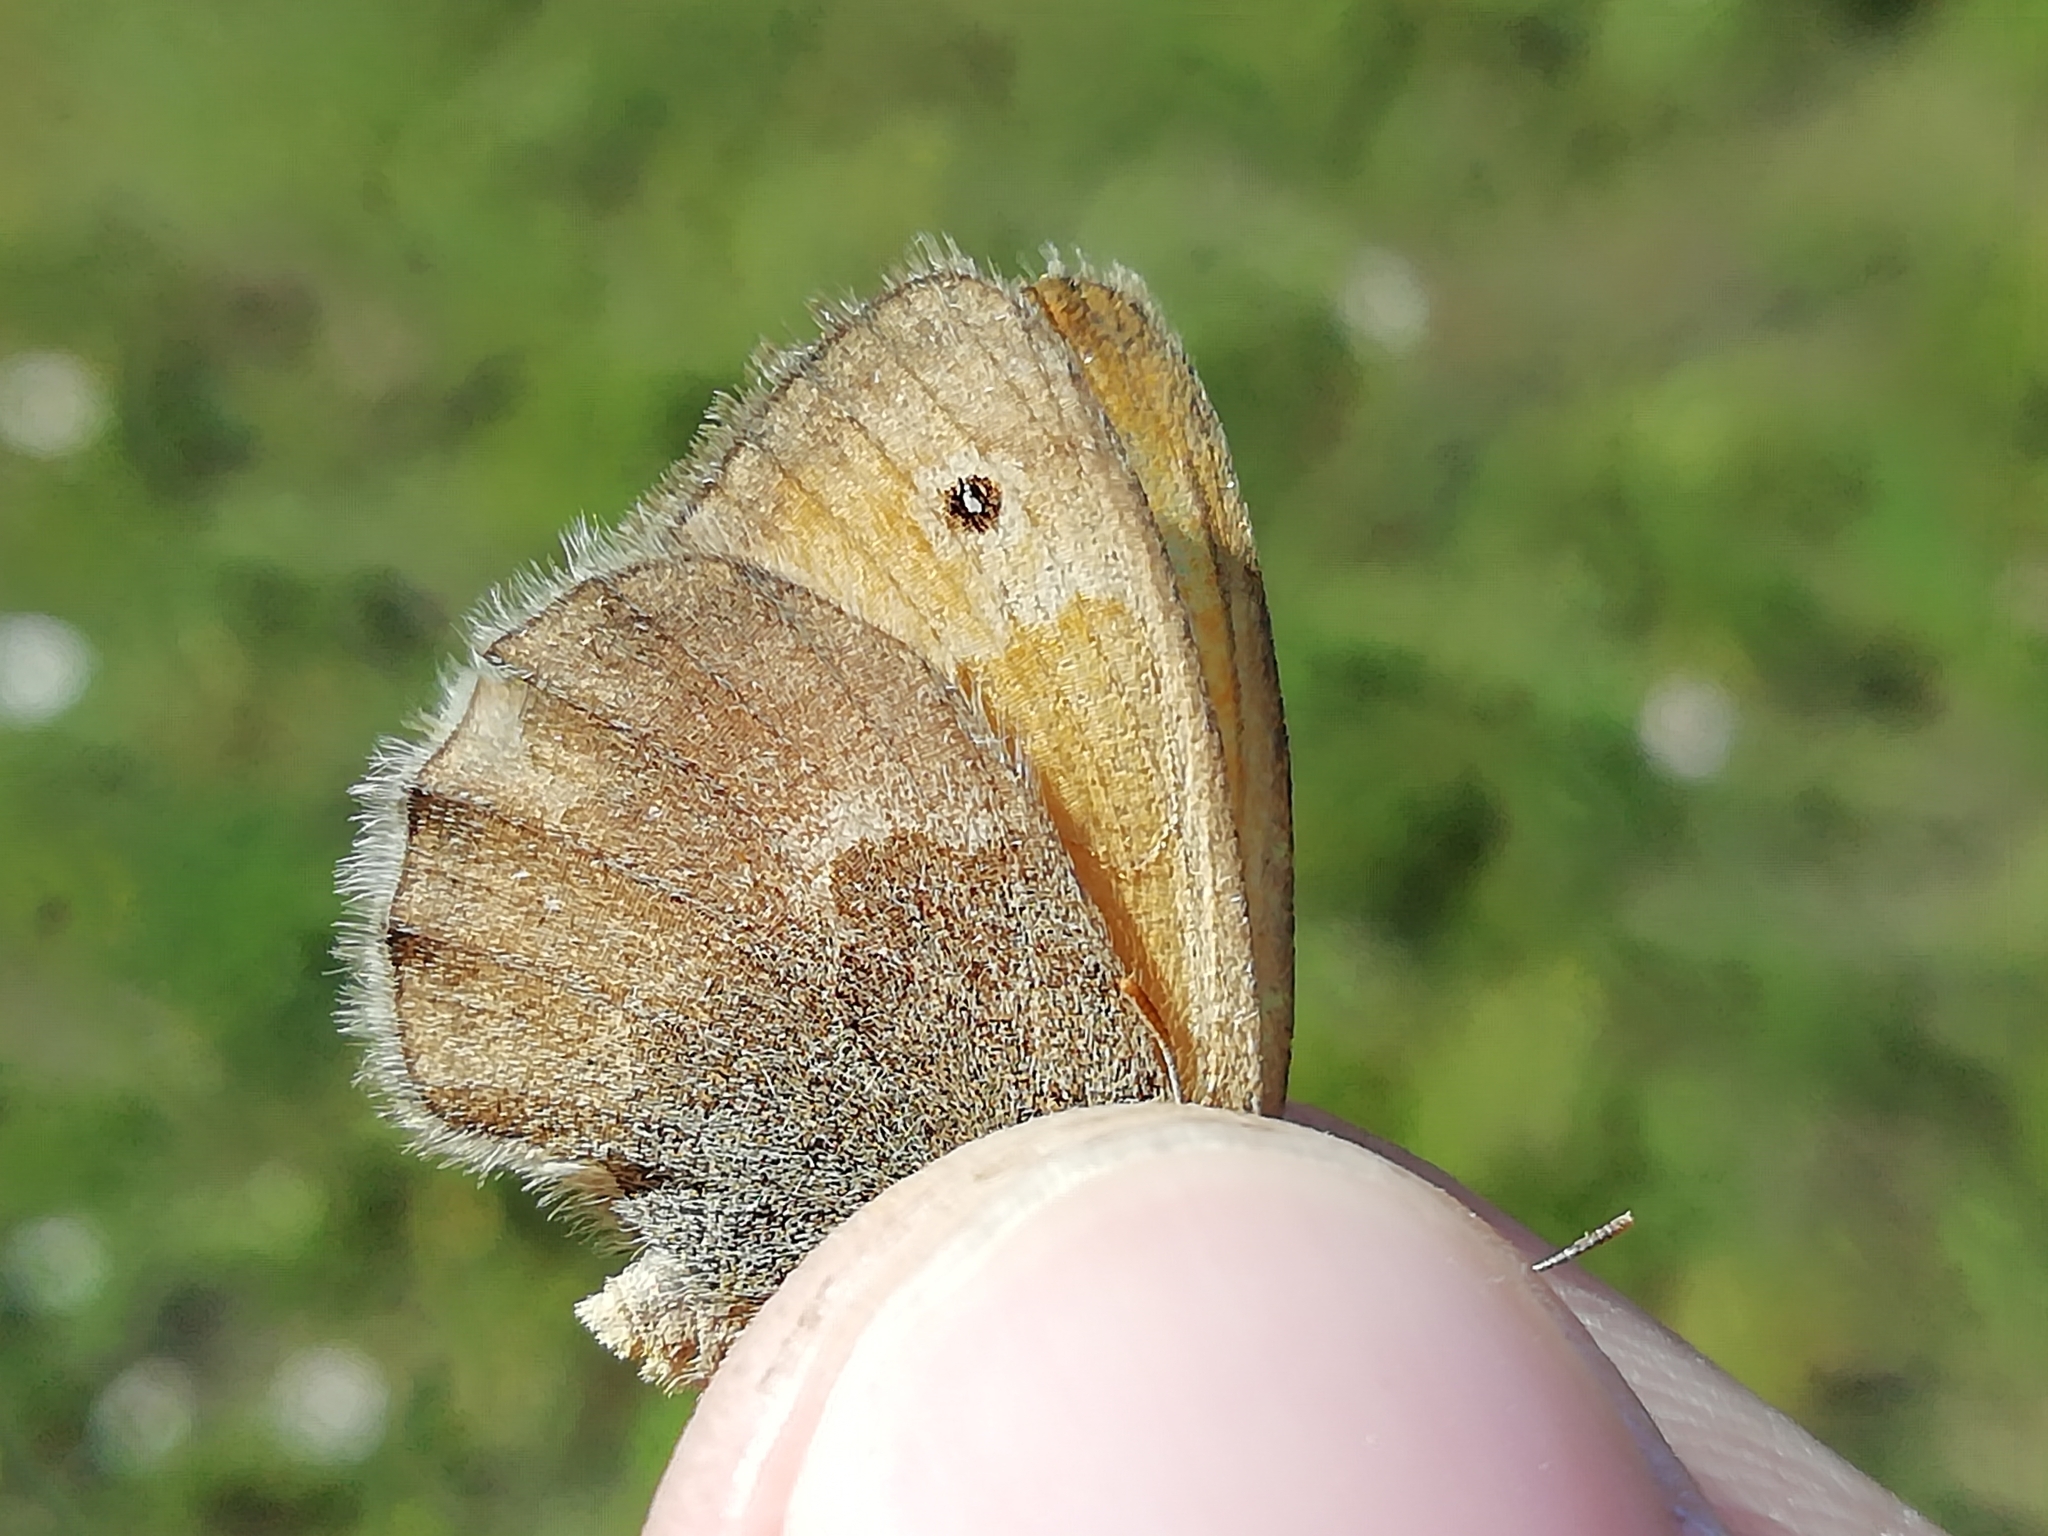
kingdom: Animalia
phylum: Arthropoda
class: Insecta
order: Lepidoptera
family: Nymphalidae
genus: Coenonympha
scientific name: Coenonympha pamphilus
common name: Small heath
